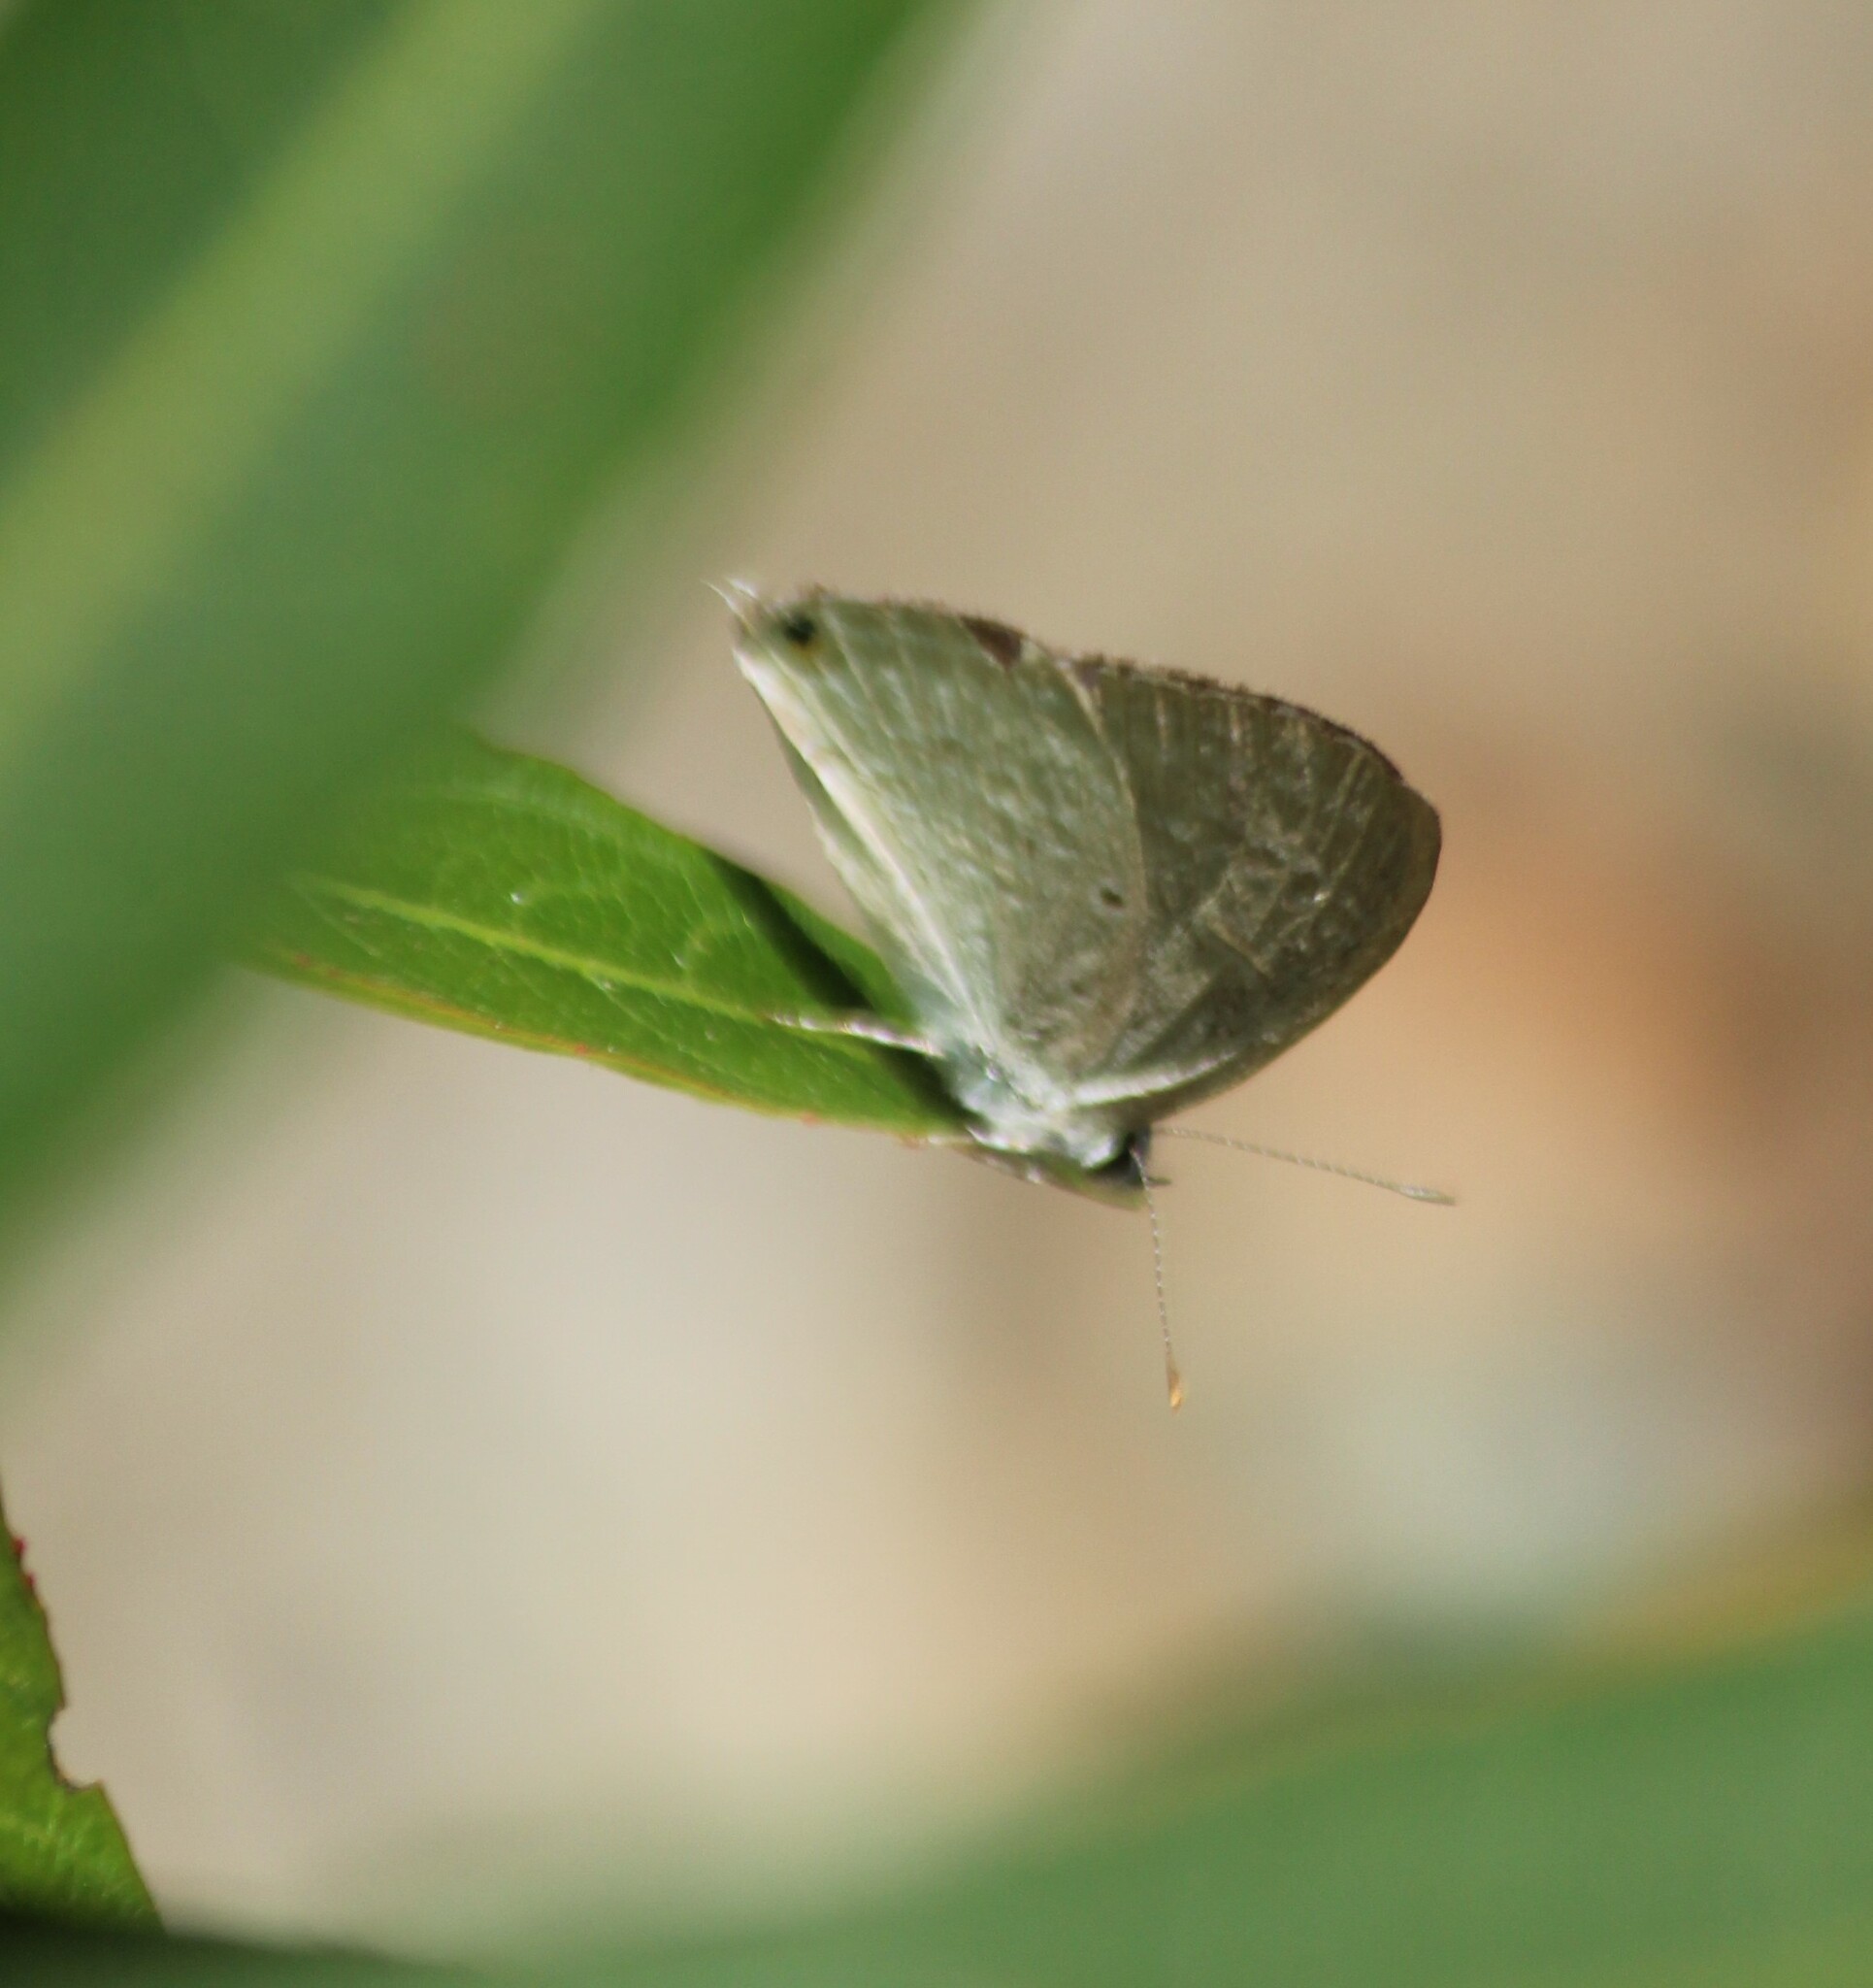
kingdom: Animalia
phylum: Arthropoda
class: Insecta
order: Lepidoptera
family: Lycaenidae
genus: Catochrysops
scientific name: Catochrysops strabo
